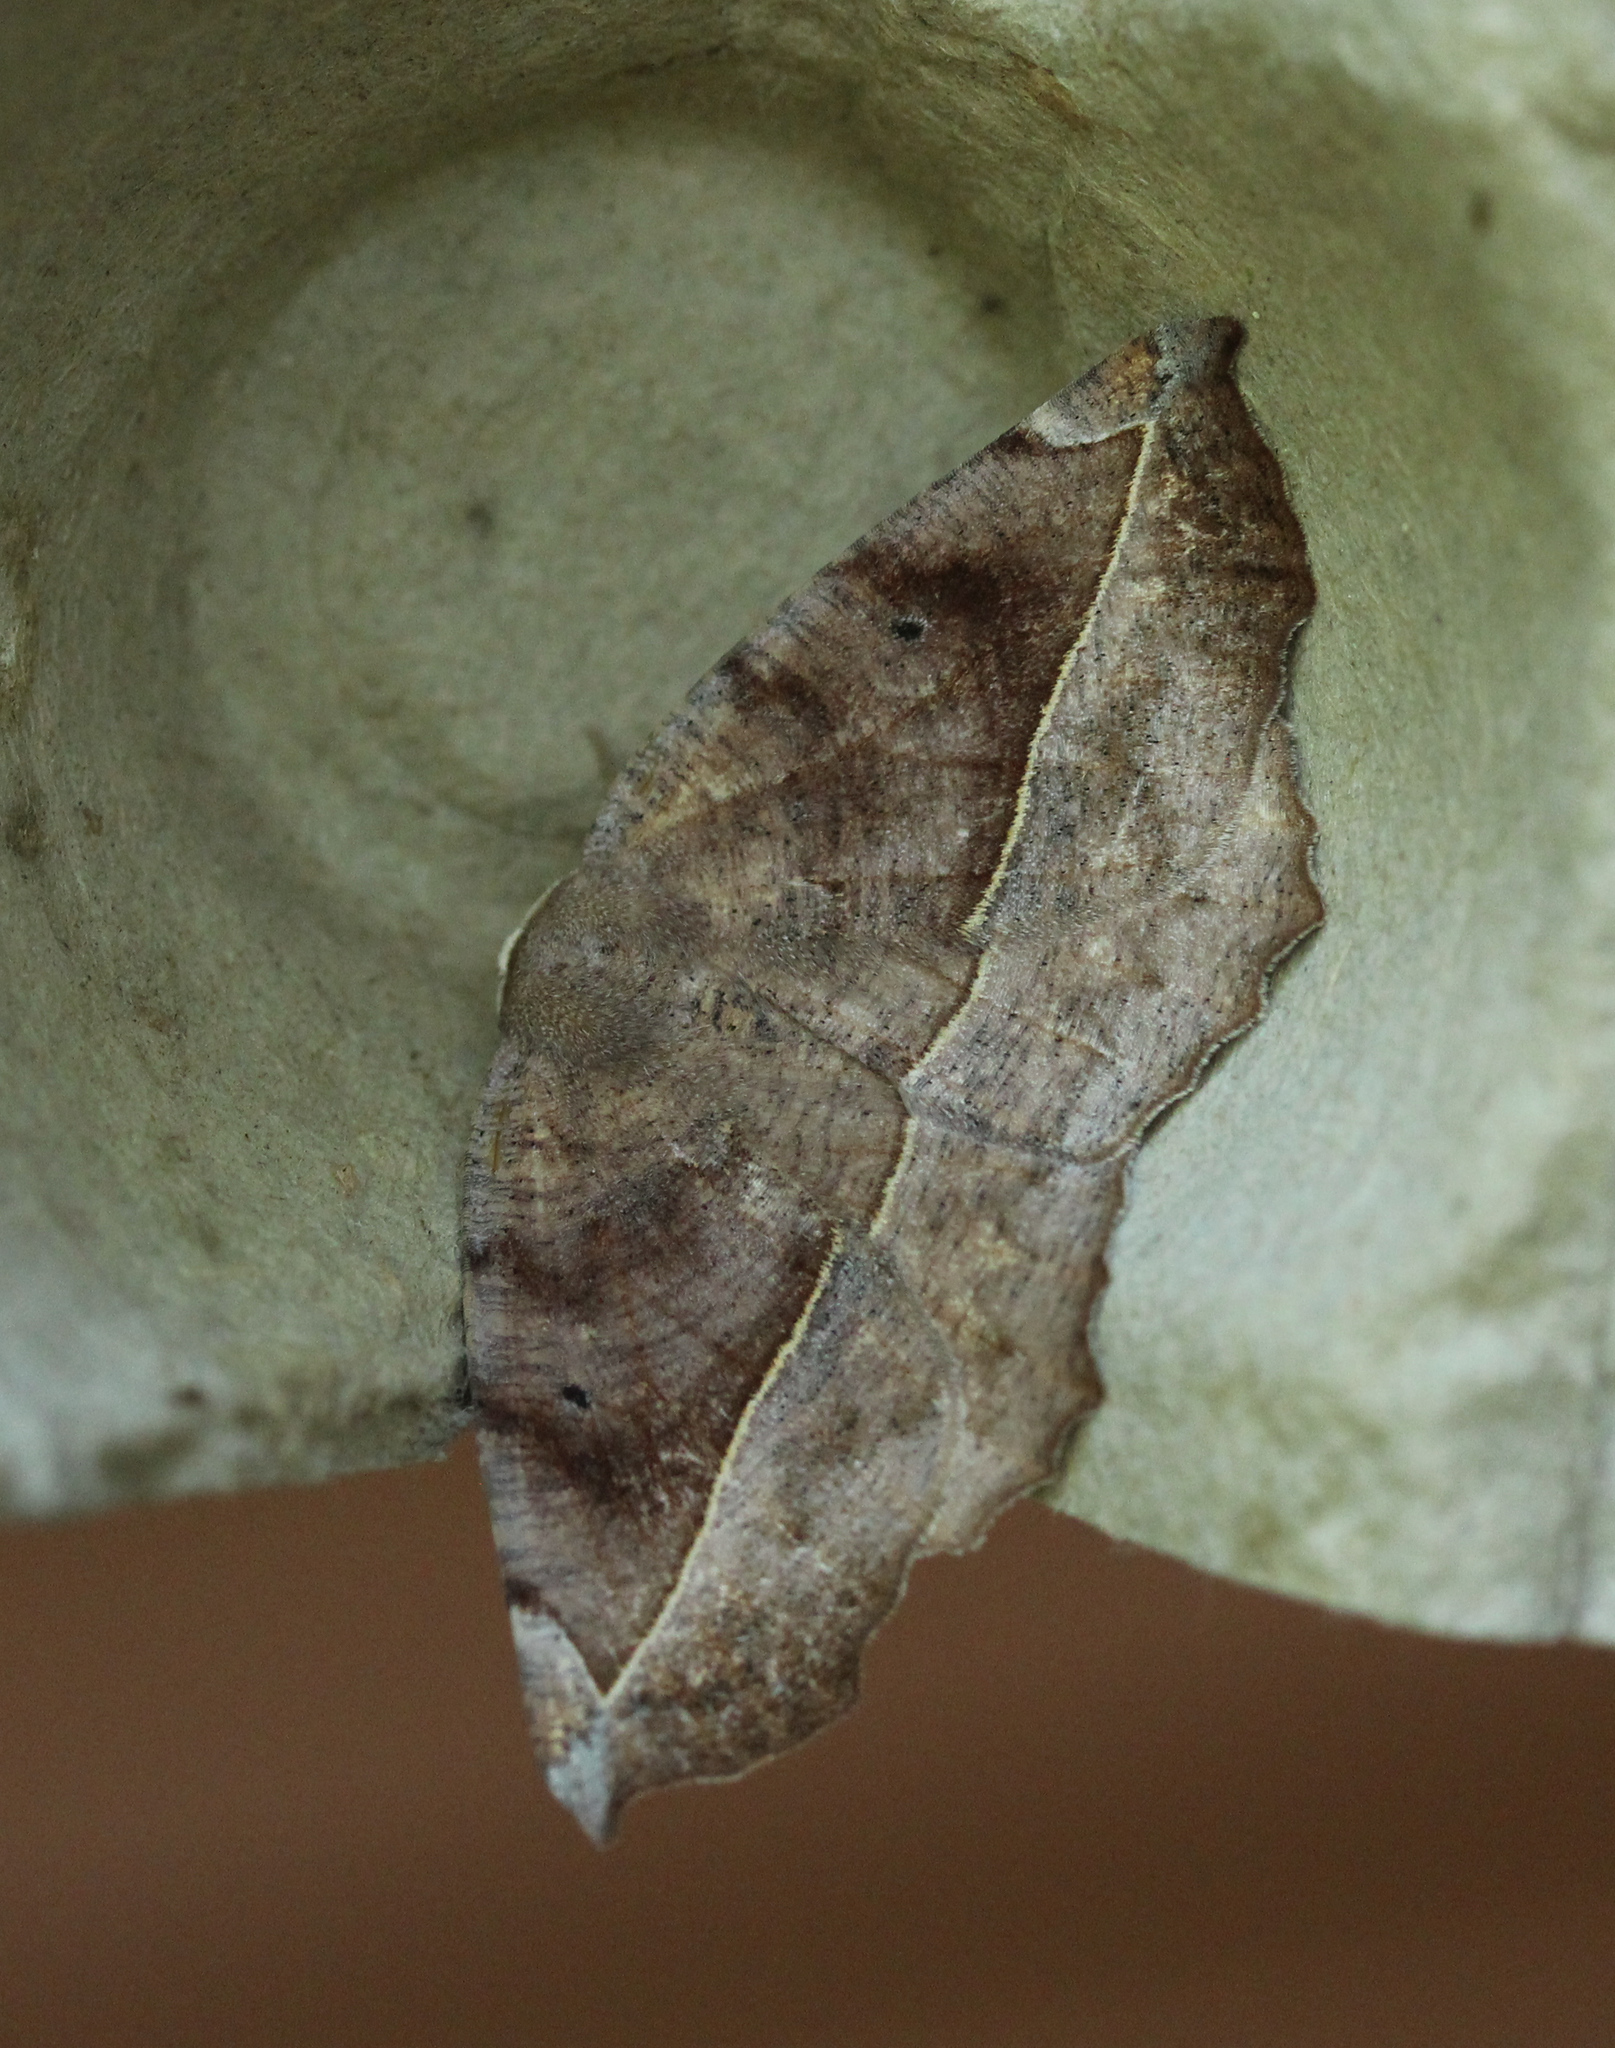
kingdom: Animalia
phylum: Arthropoda
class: Insecta
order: Lepidoptera
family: Geometridae
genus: Eutrapela
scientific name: Eutrapela clemataria
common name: Curved-toothed geometer
